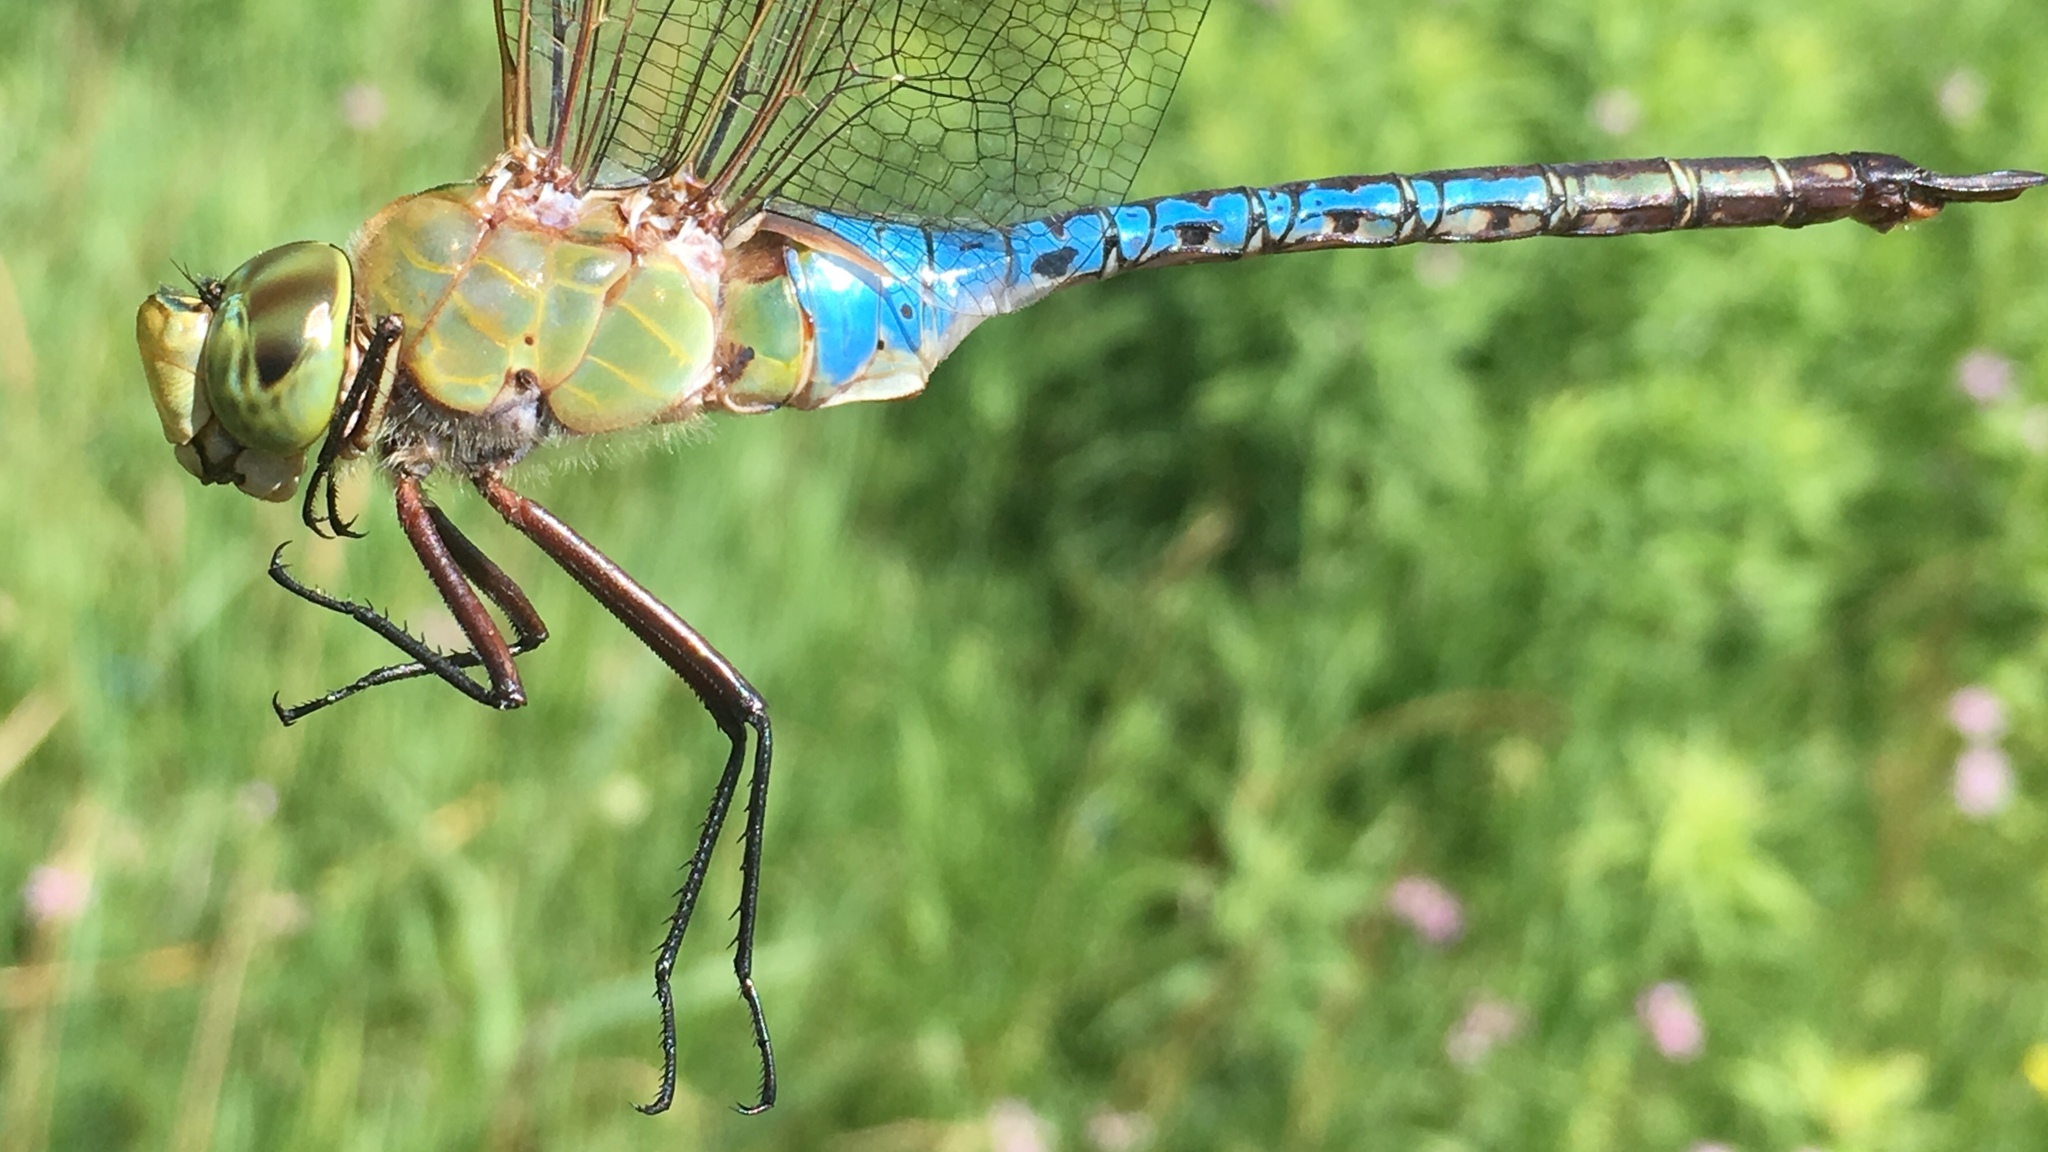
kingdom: Animalia
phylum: Arthropoda
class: Insecta
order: Odonata
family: Aeshnidae
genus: Anax
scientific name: Anax junius
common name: Common green darner
